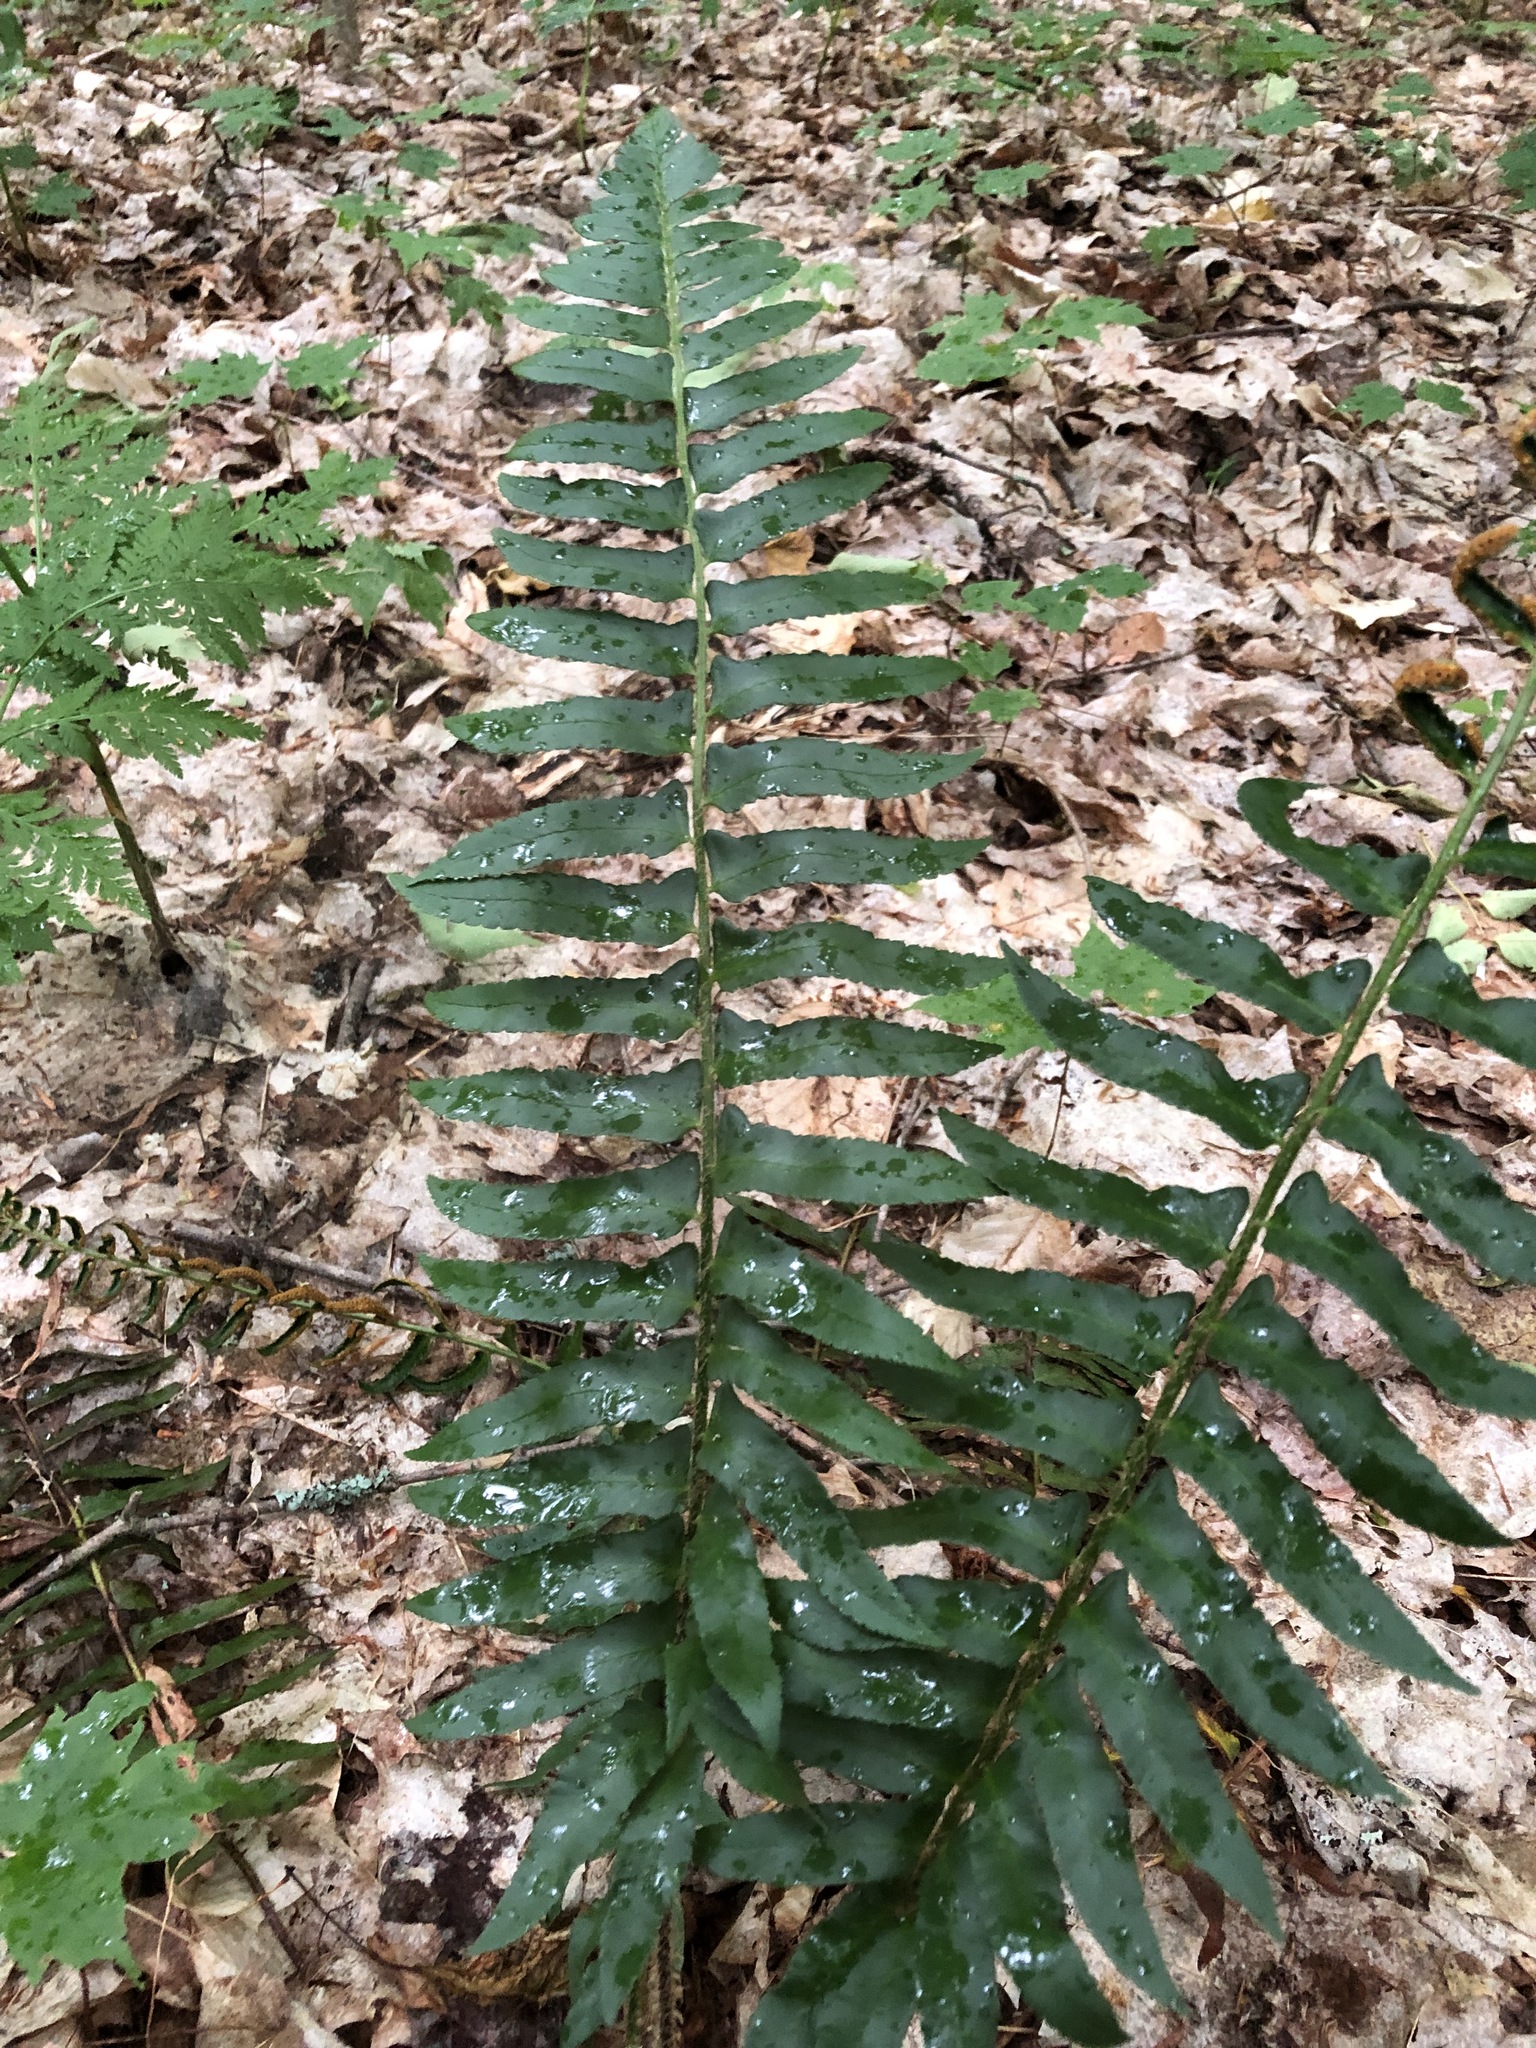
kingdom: Plantae
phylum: Tracheophyta
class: Polypodiopsida
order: Polypodiales
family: Dryopteridaceae
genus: Polystichum
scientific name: Polystichum acrostichoides
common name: Christmas fern
